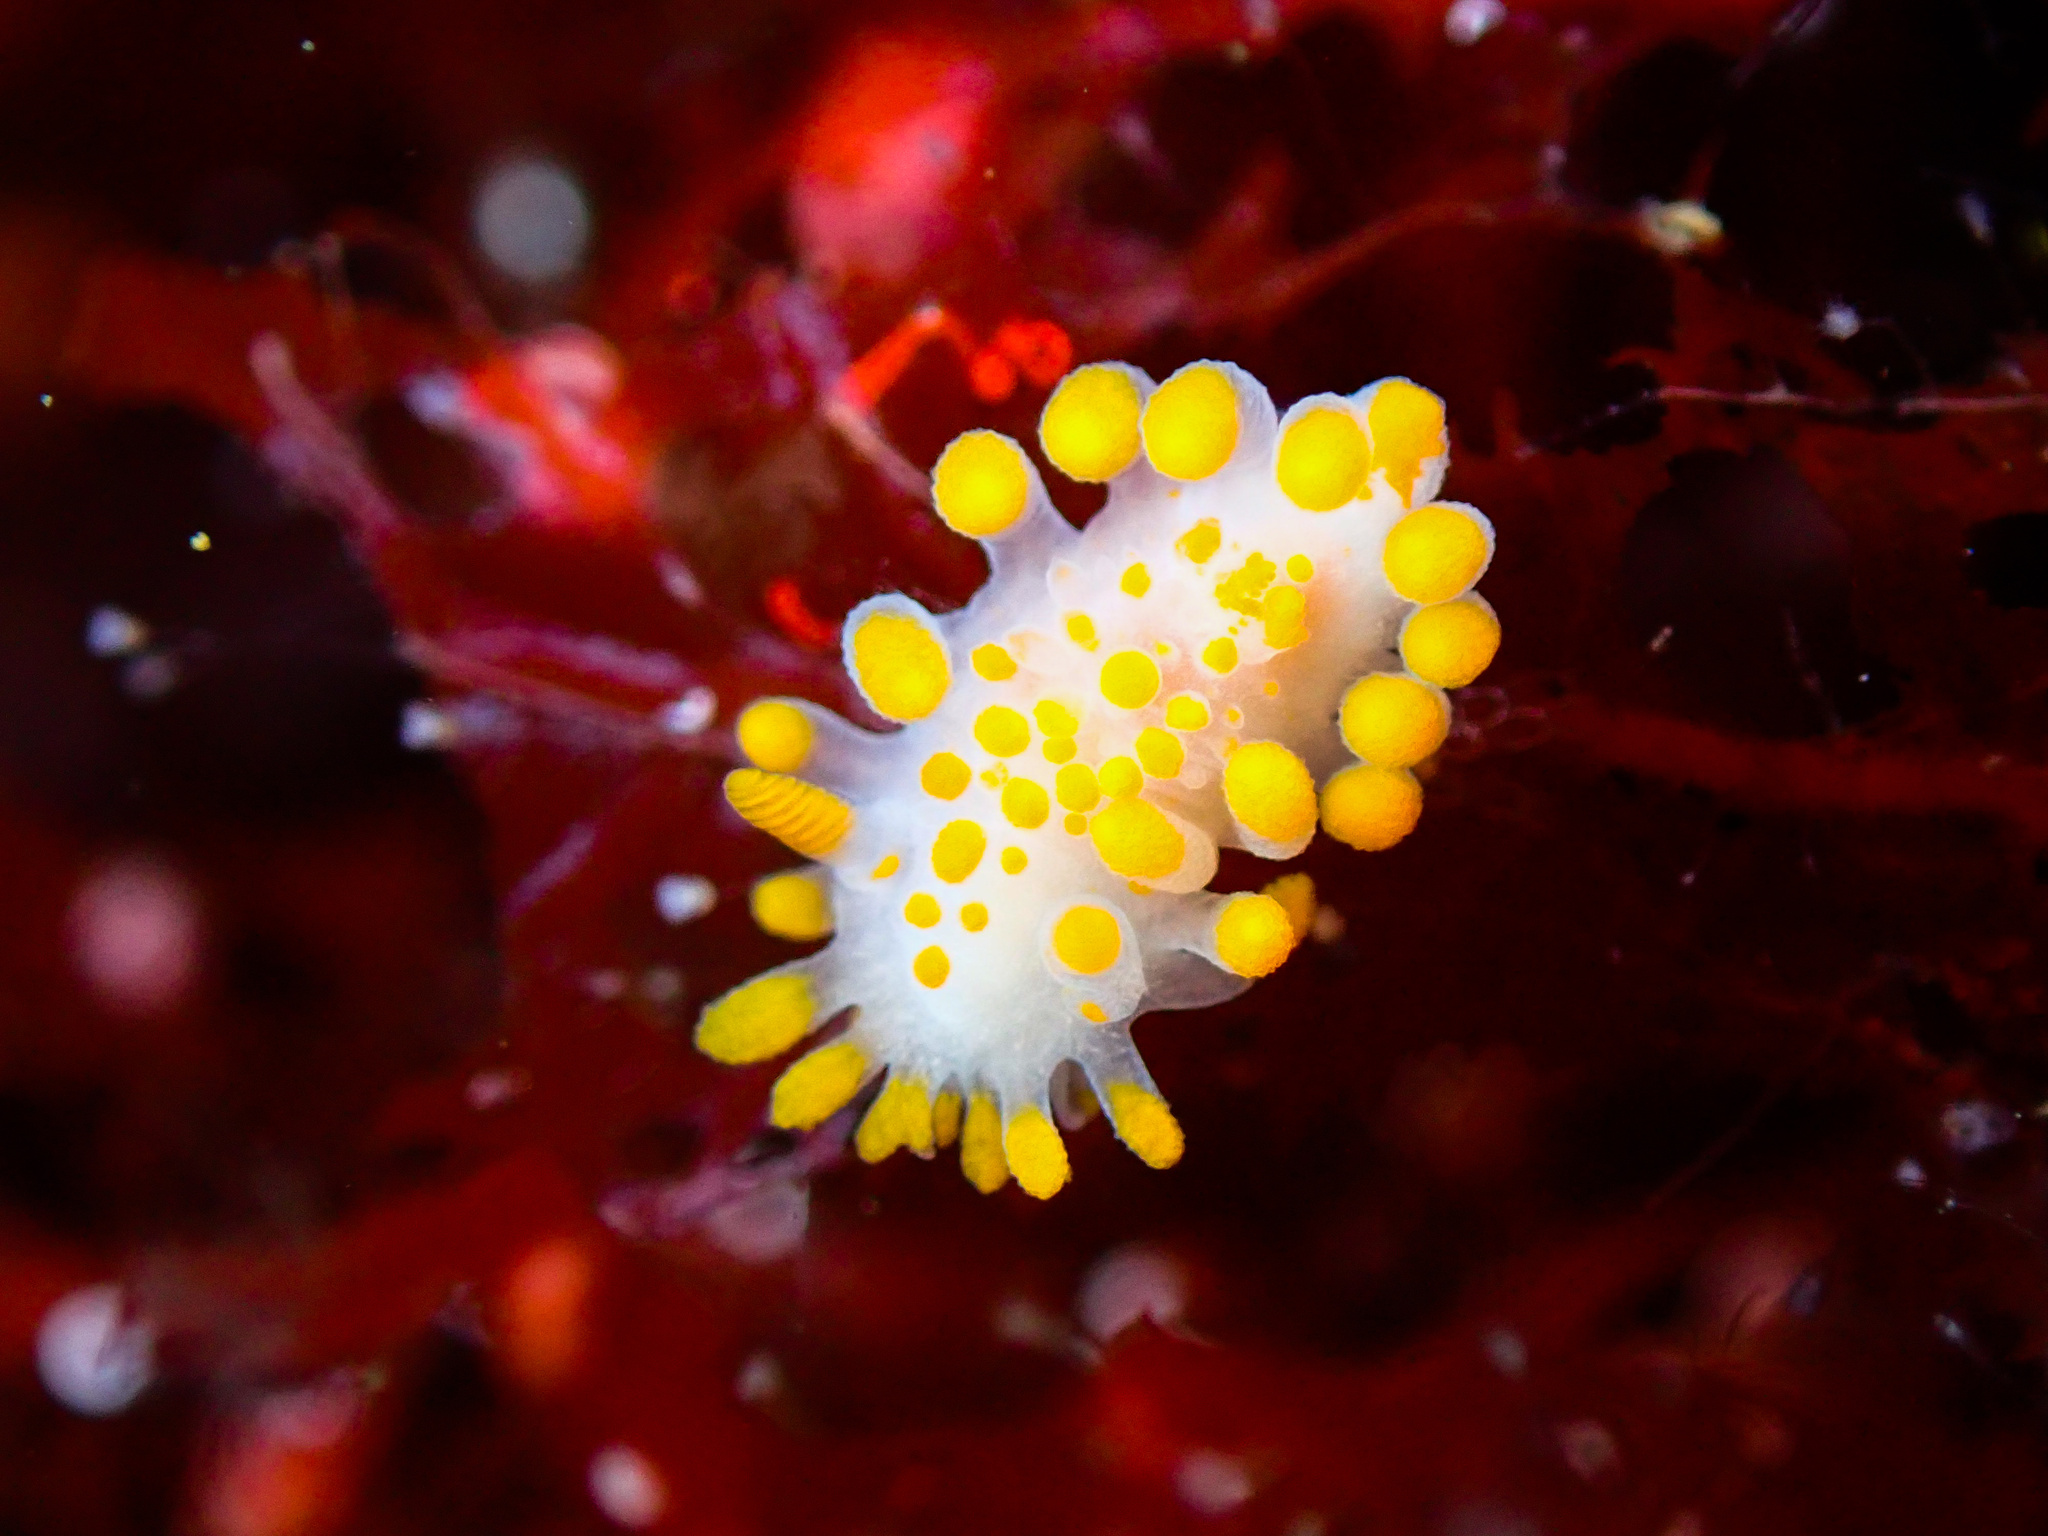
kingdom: Animalia
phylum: Mollusca
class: Gastropoda
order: Nudibranchia
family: Polyceridae
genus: Limacia
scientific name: Limacia clavigera
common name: Orange-clubbed sea slug
